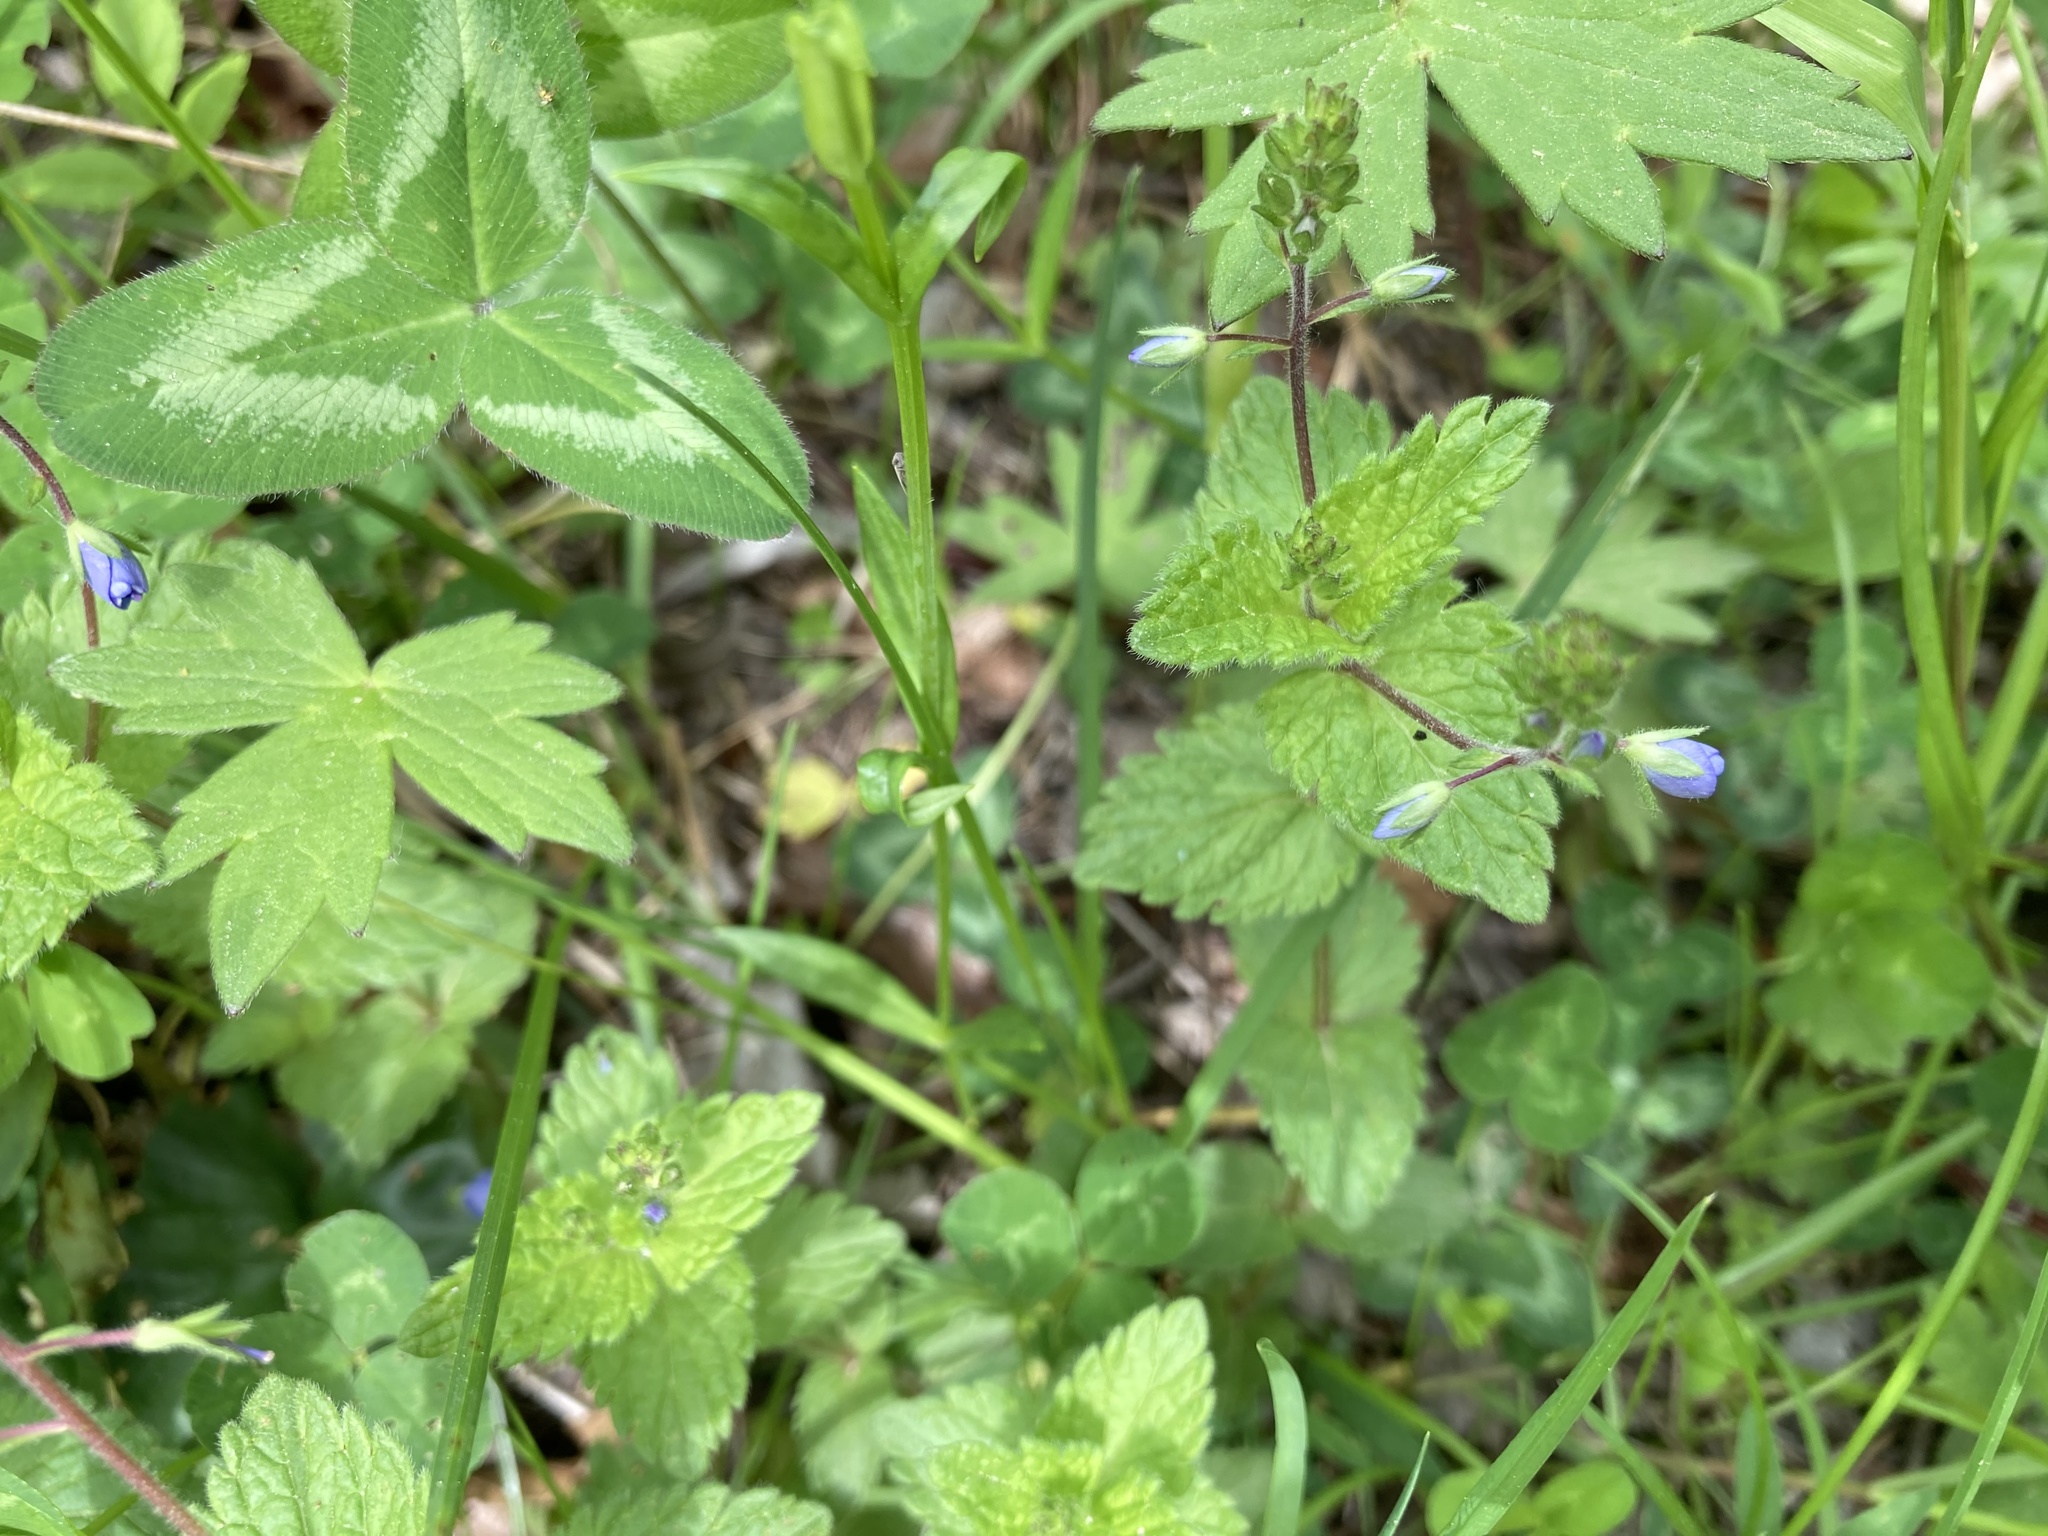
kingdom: Plantae
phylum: Tracheophyta
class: Magnoliopsida
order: Lamiales
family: Plantaginaceae
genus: Veronica
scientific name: Veronica chamaedrys
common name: Germander speedwell
